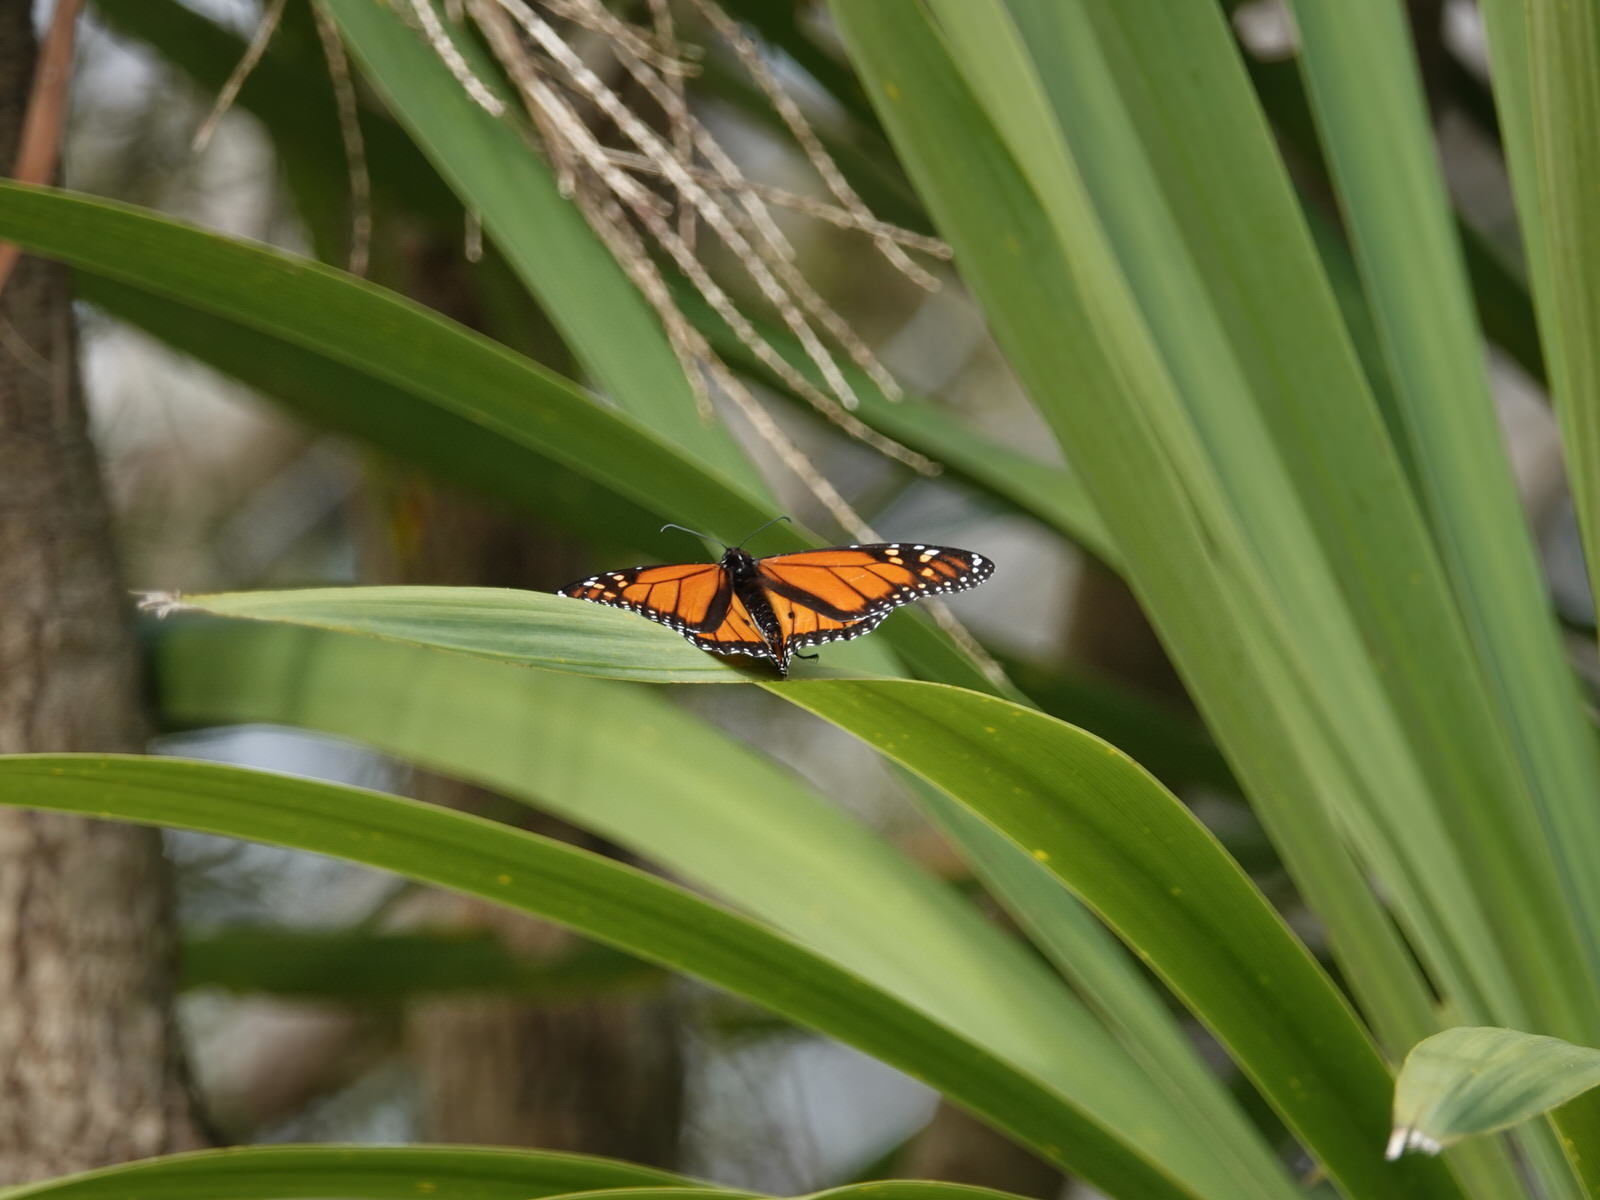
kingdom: Animalia
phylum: Arthropoda
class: Insecta
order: Lepidoptera
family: Nymphalidae
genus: Danaus
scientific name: Danaus plexippus
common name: Monarch
